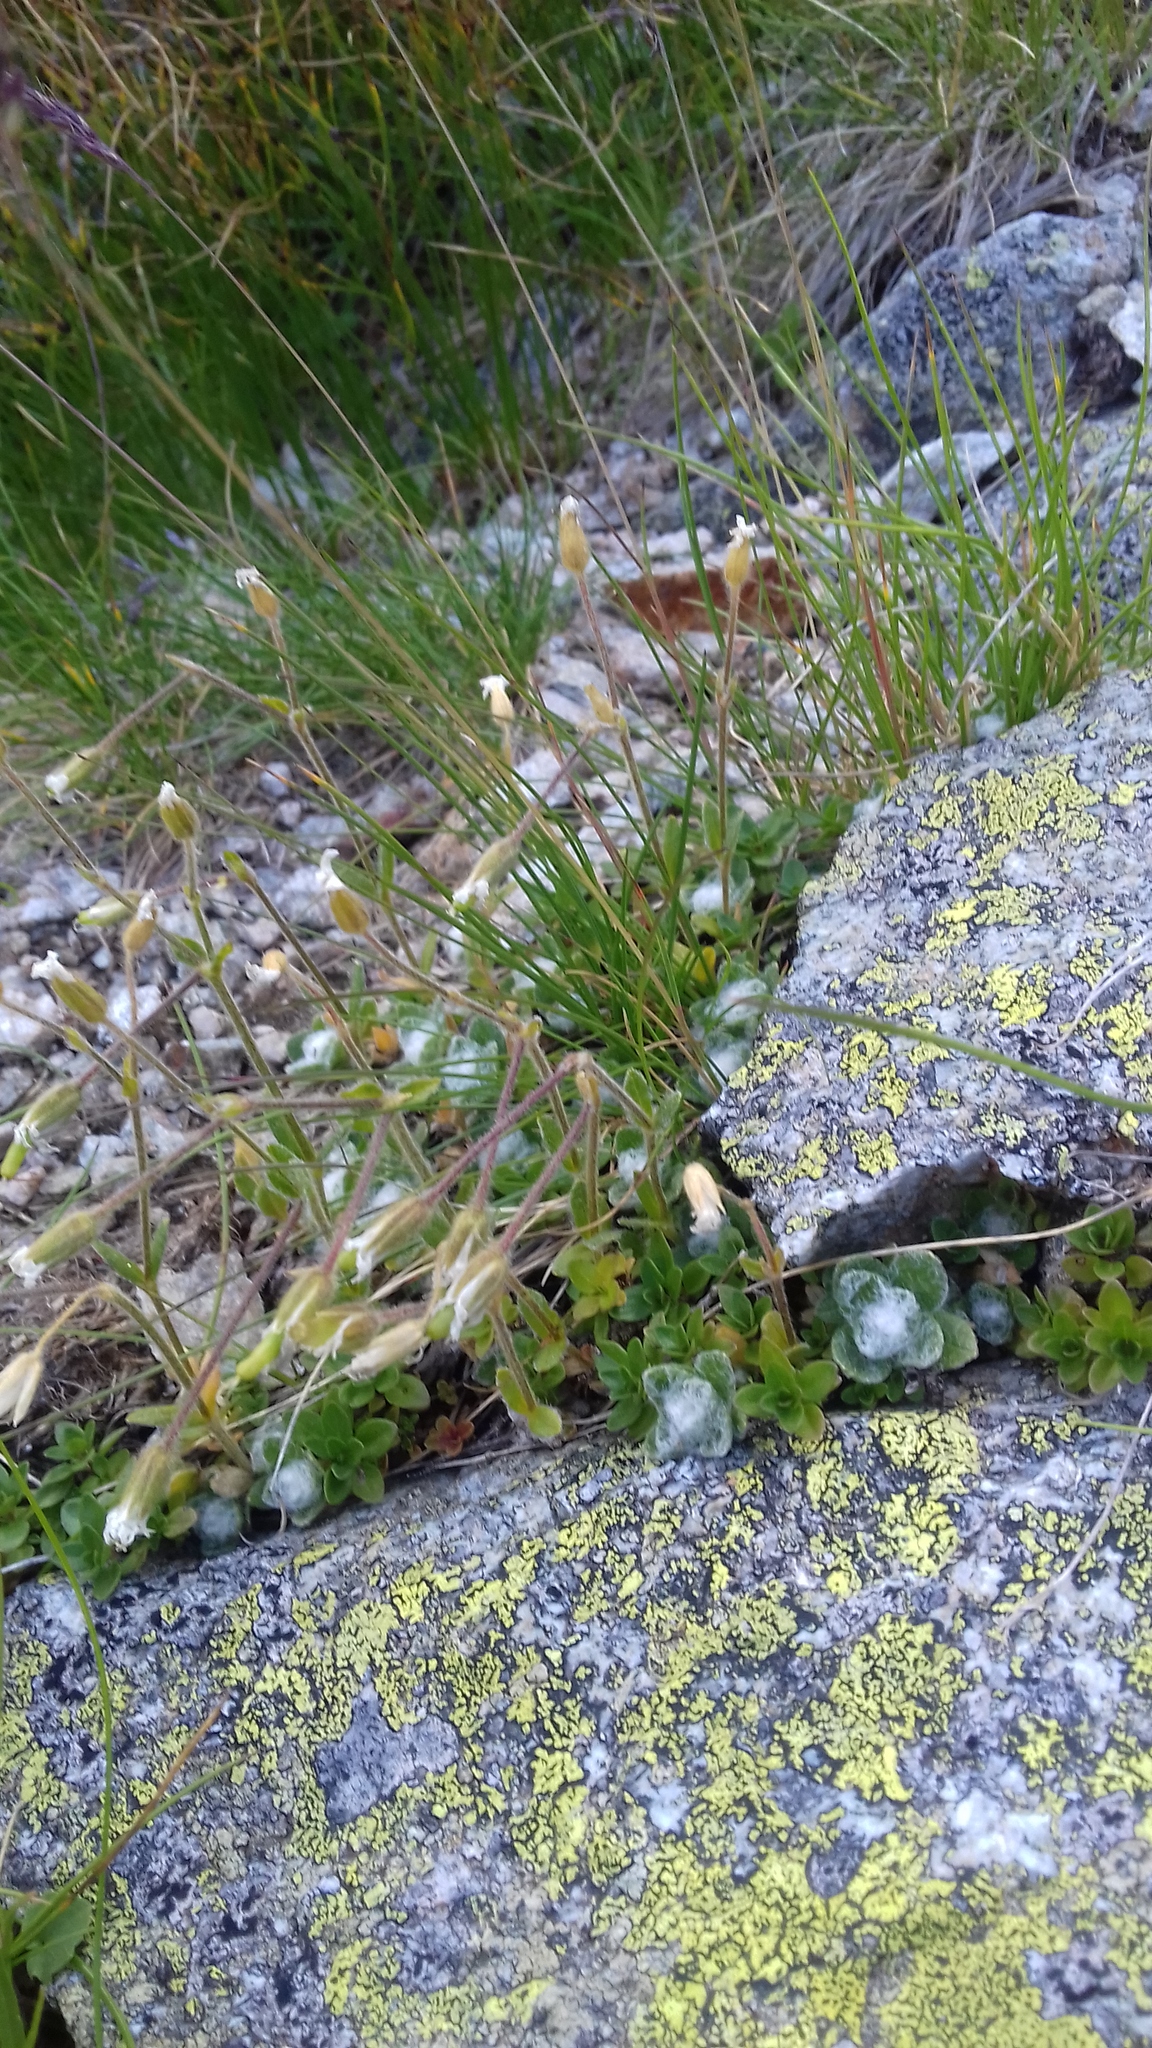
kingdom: Plantae
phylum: Tracheophyta
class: Magnoliopsida
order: Caryophyllales
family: Caryophyllaceae
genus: Cerastium
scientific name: Cerastium eriophorum
